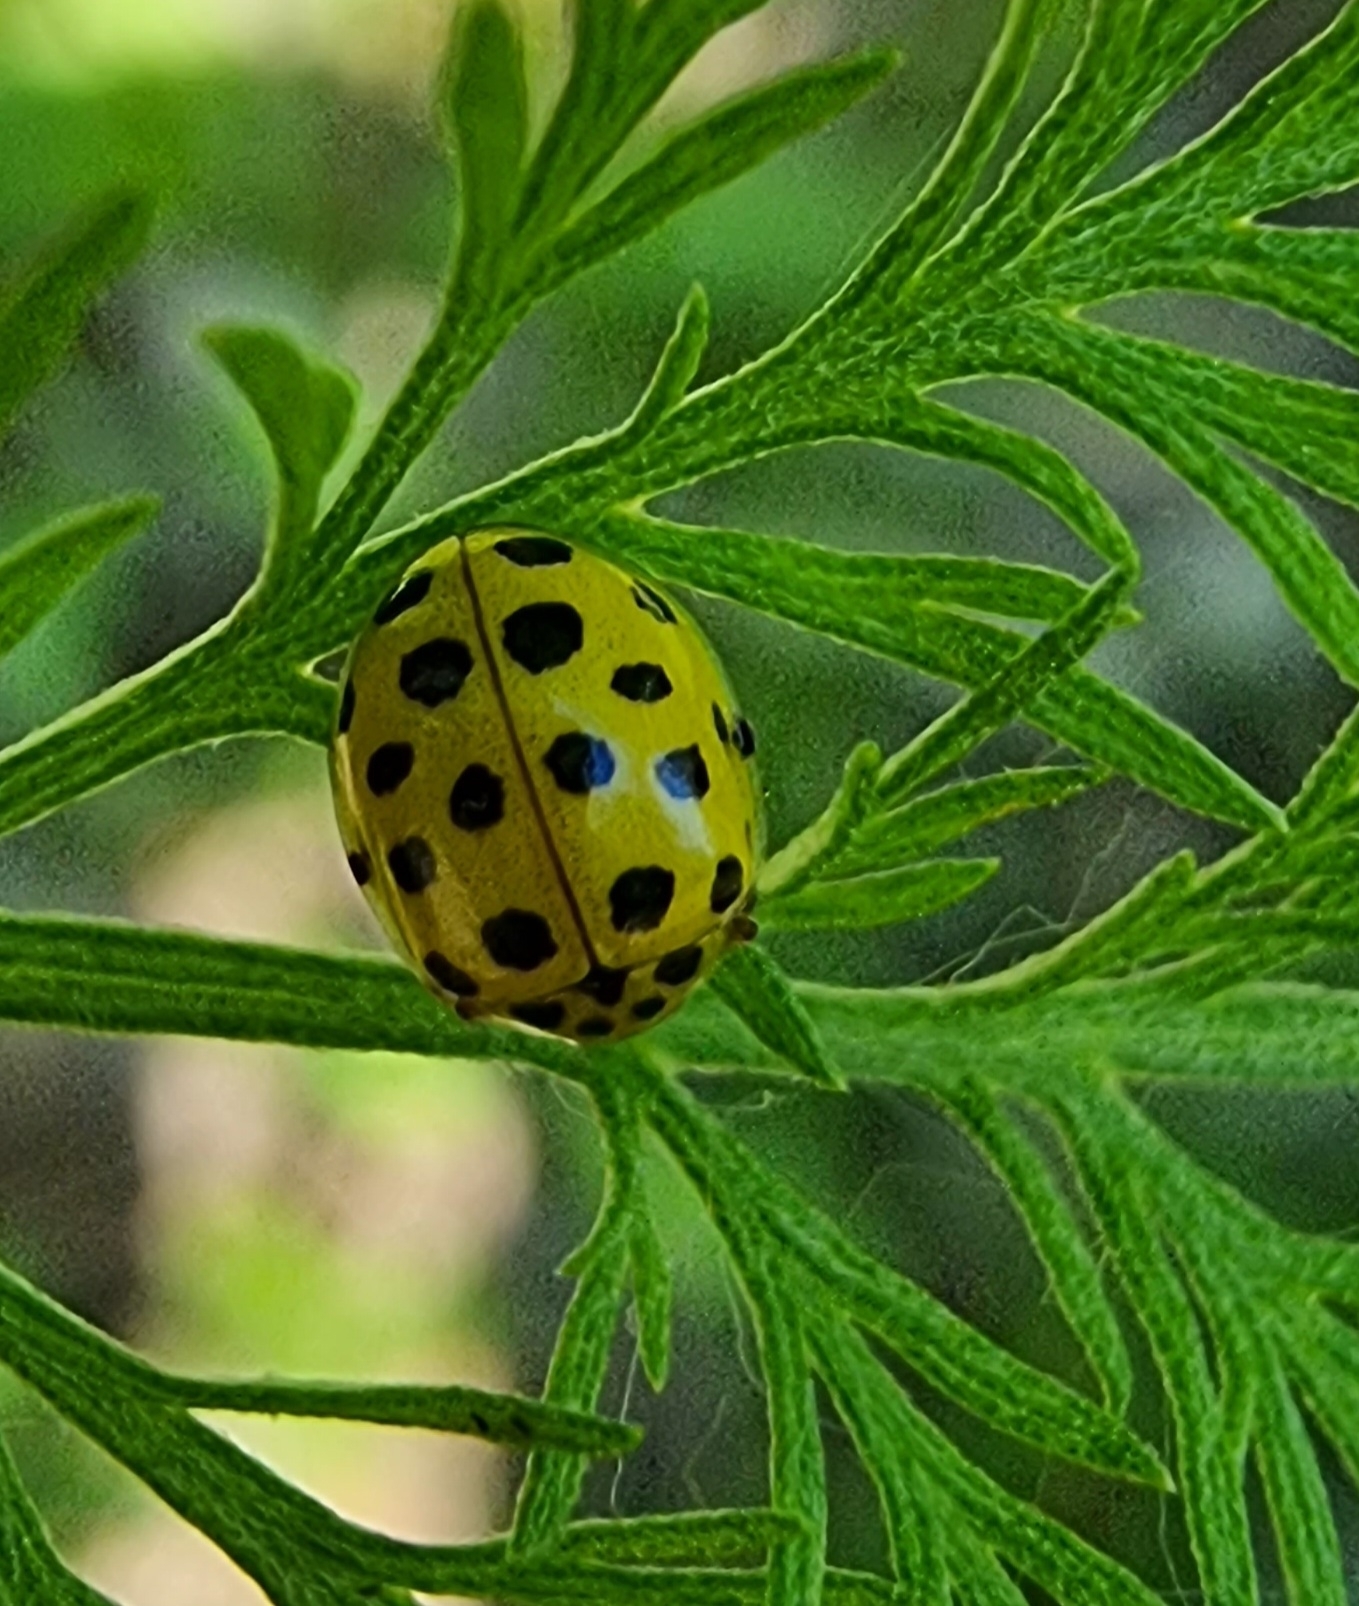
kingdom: Animalia
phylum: Arthropoda
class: Insecta
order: Coleoptera
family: Coccinellidae
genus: Psyllobora
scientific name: Psyllobora vigintiduopunctata
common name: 22-spot ladybird
